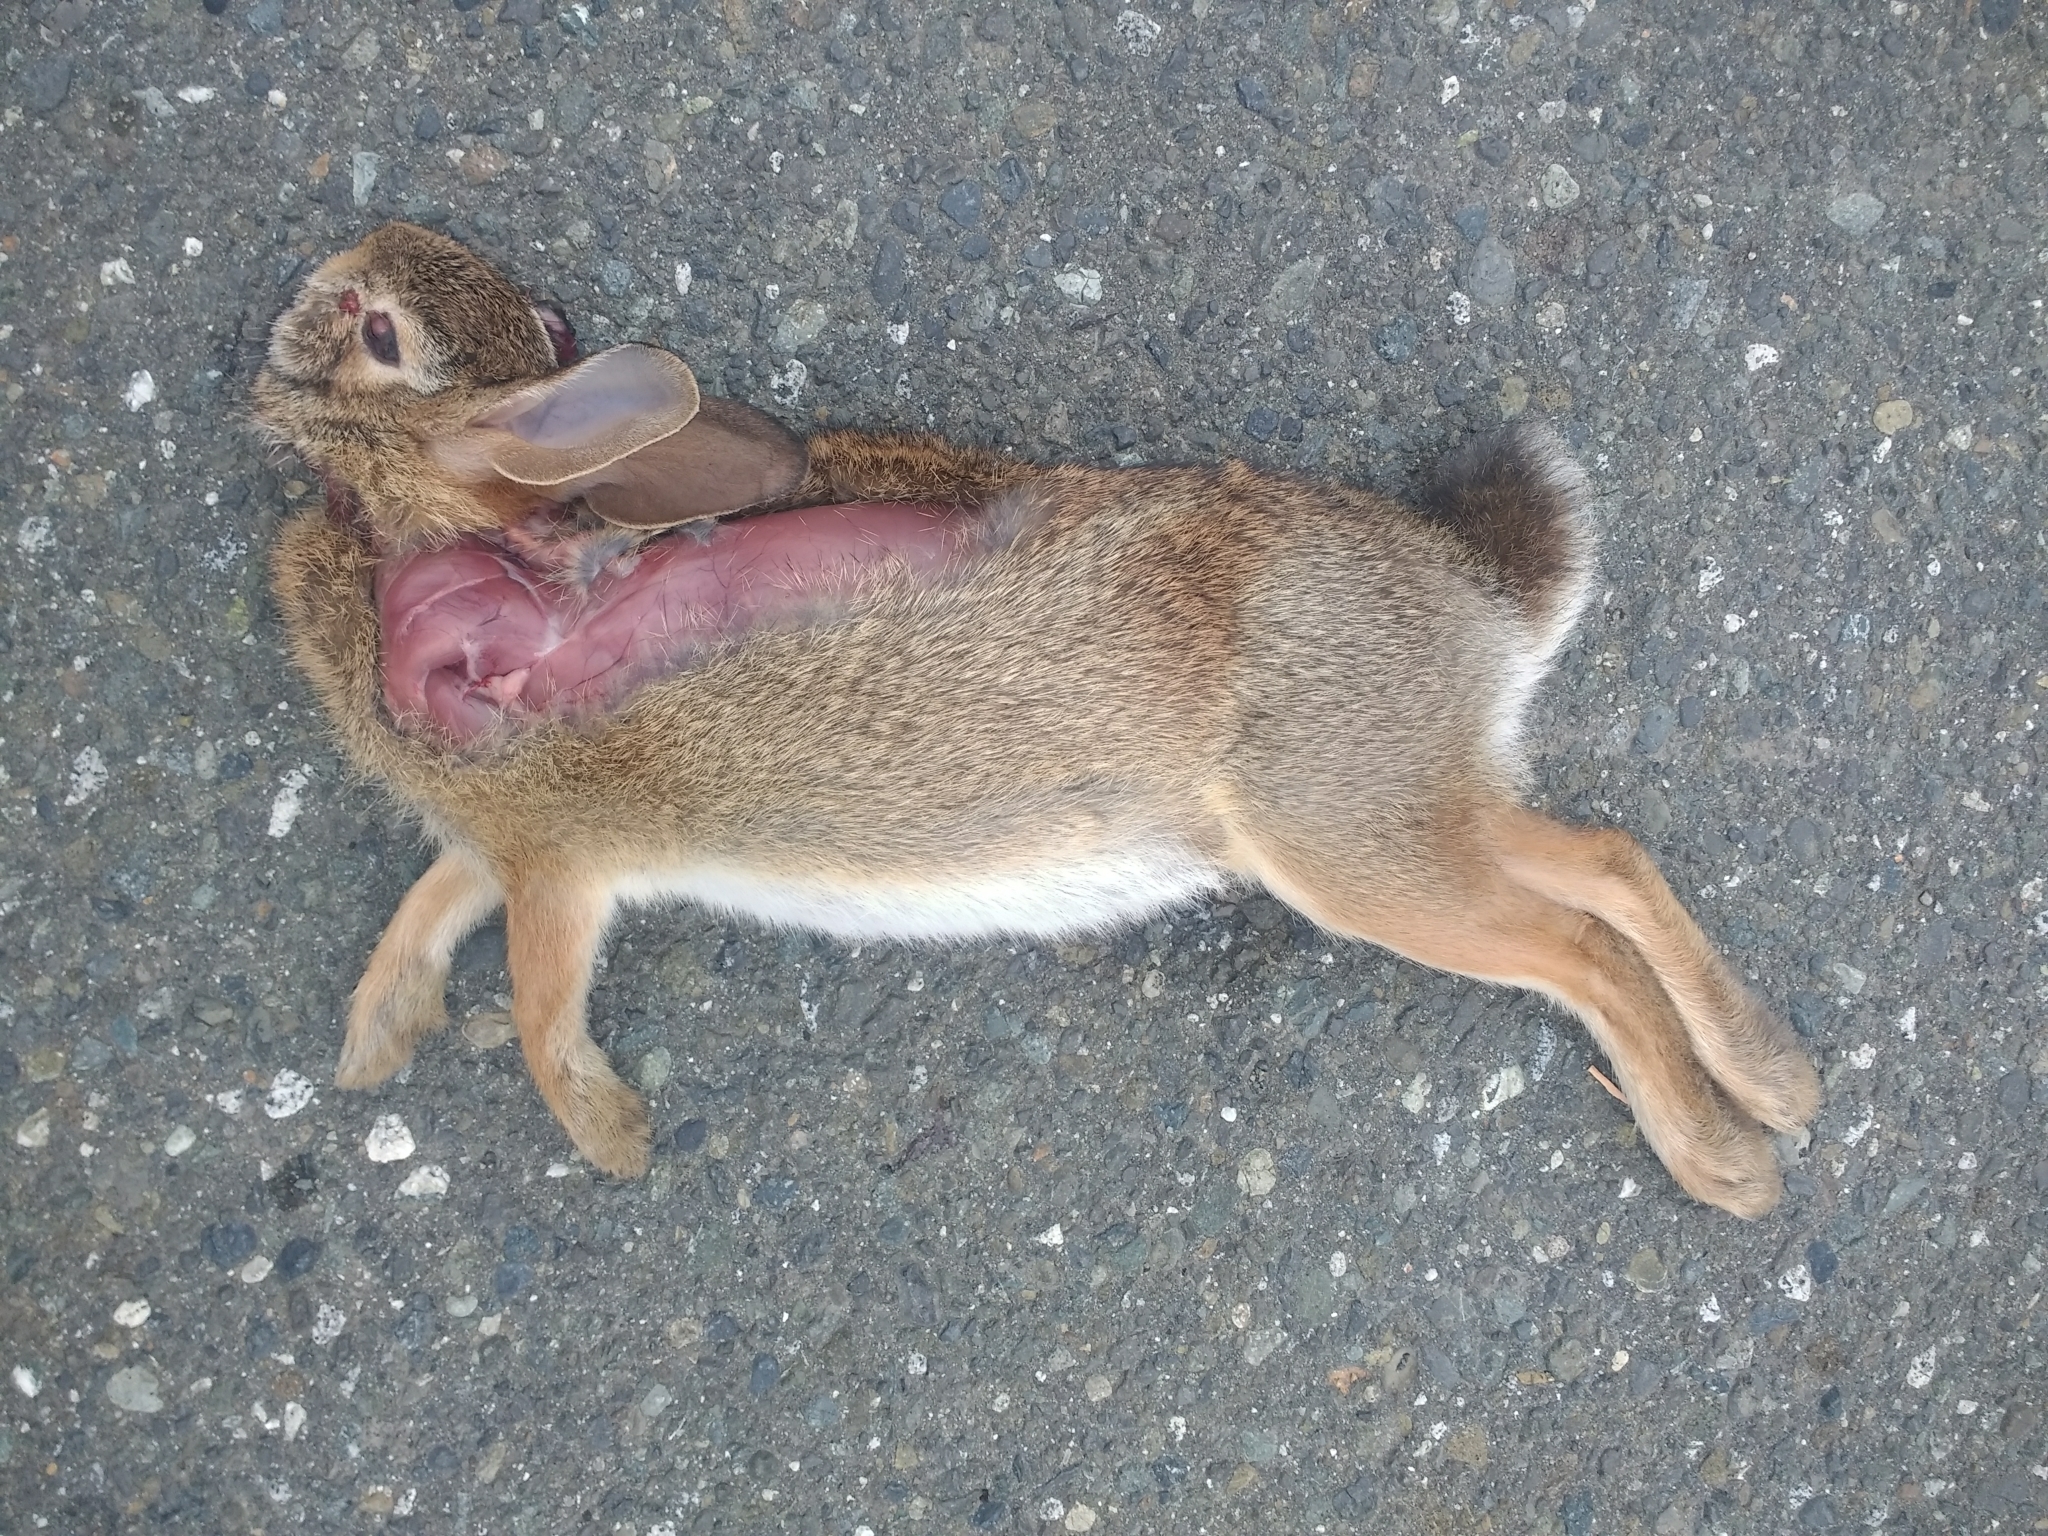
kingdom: Animalia
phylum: Chordata
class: Mammalia
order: Lagomorpha
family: Leporidae
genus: Sylvilagus
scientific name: Sylvilagus floridanus
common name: Eastern cottontail
